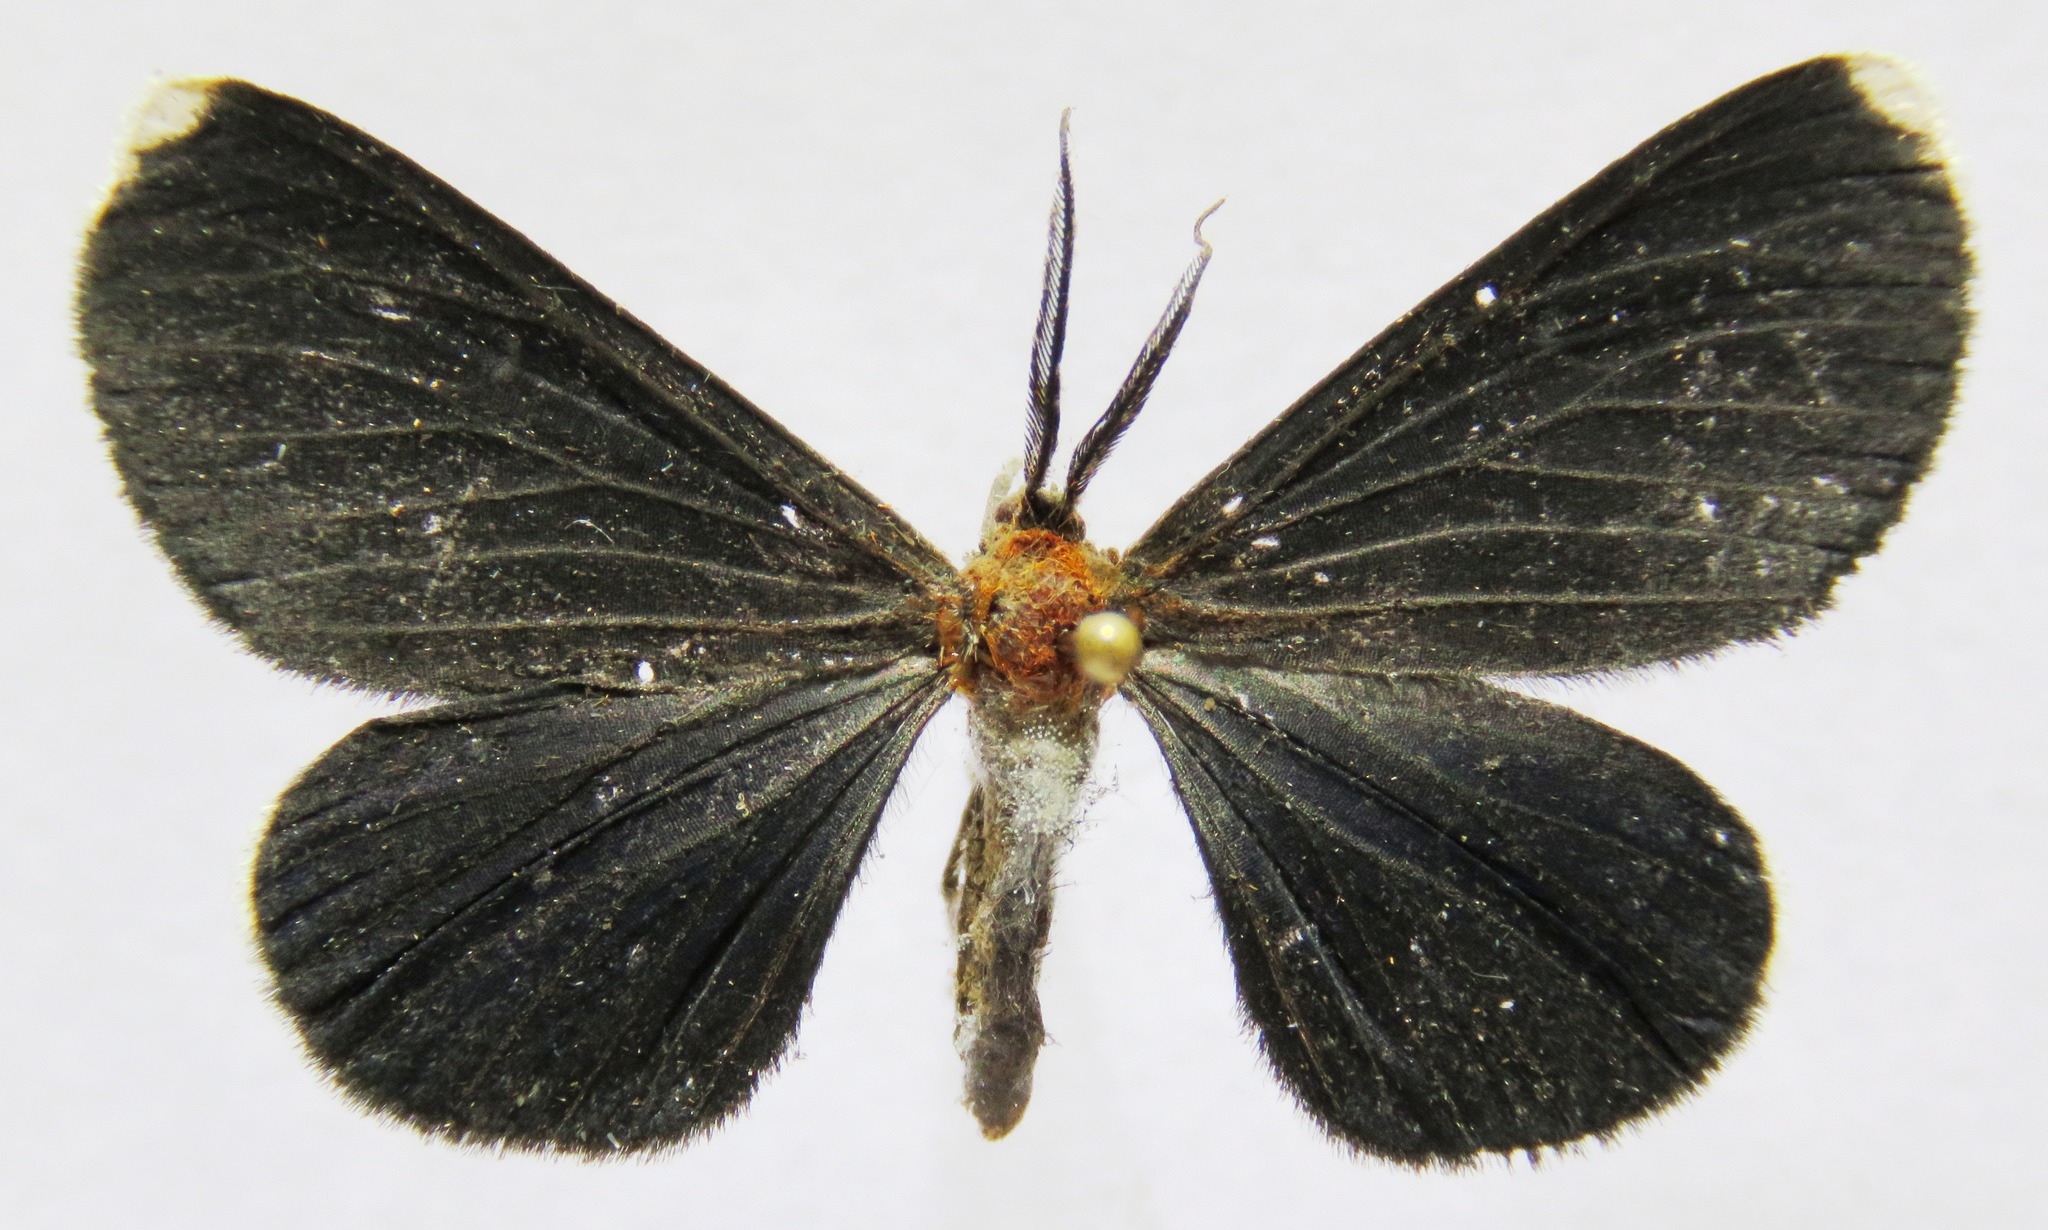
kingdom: Animalia
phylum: Arthropoda
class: Insecta
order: Lepidoptera
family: Geometridae
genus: Melanchroia
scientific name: Melanchroia chephise
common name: White-tipped black
